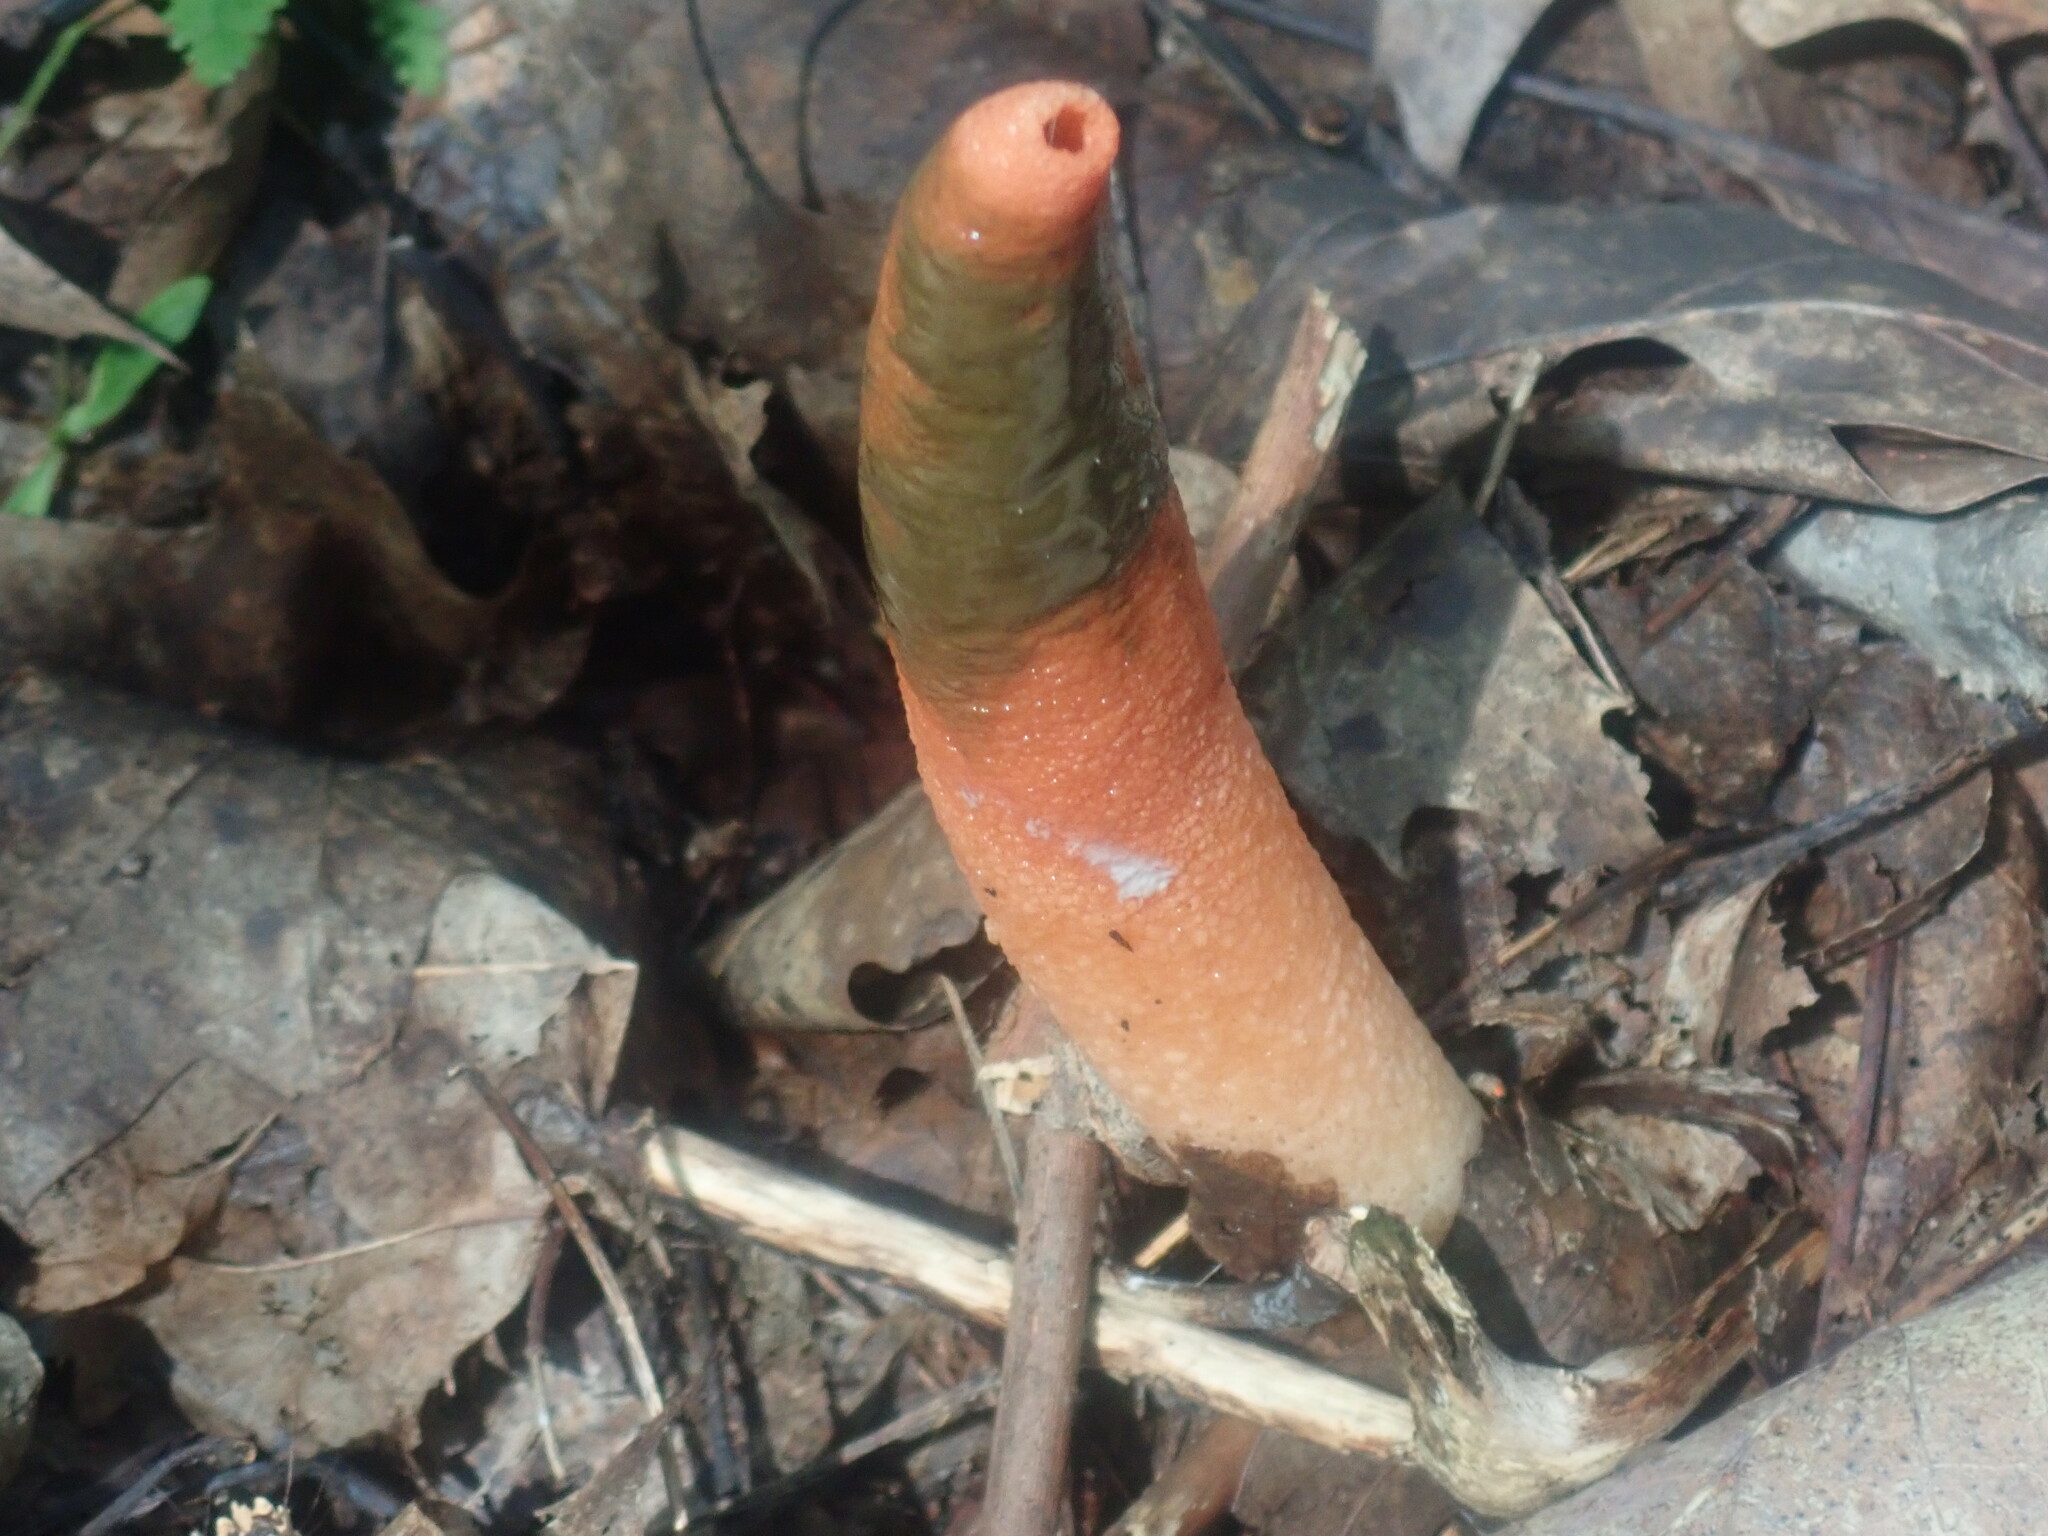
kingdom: Fungi
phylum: Basidiomycota
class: Agaricomycetes
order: Phallales
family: Phallaceae
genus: Mutinus
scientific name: Mutinus elegans
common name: Devil's dipstick
